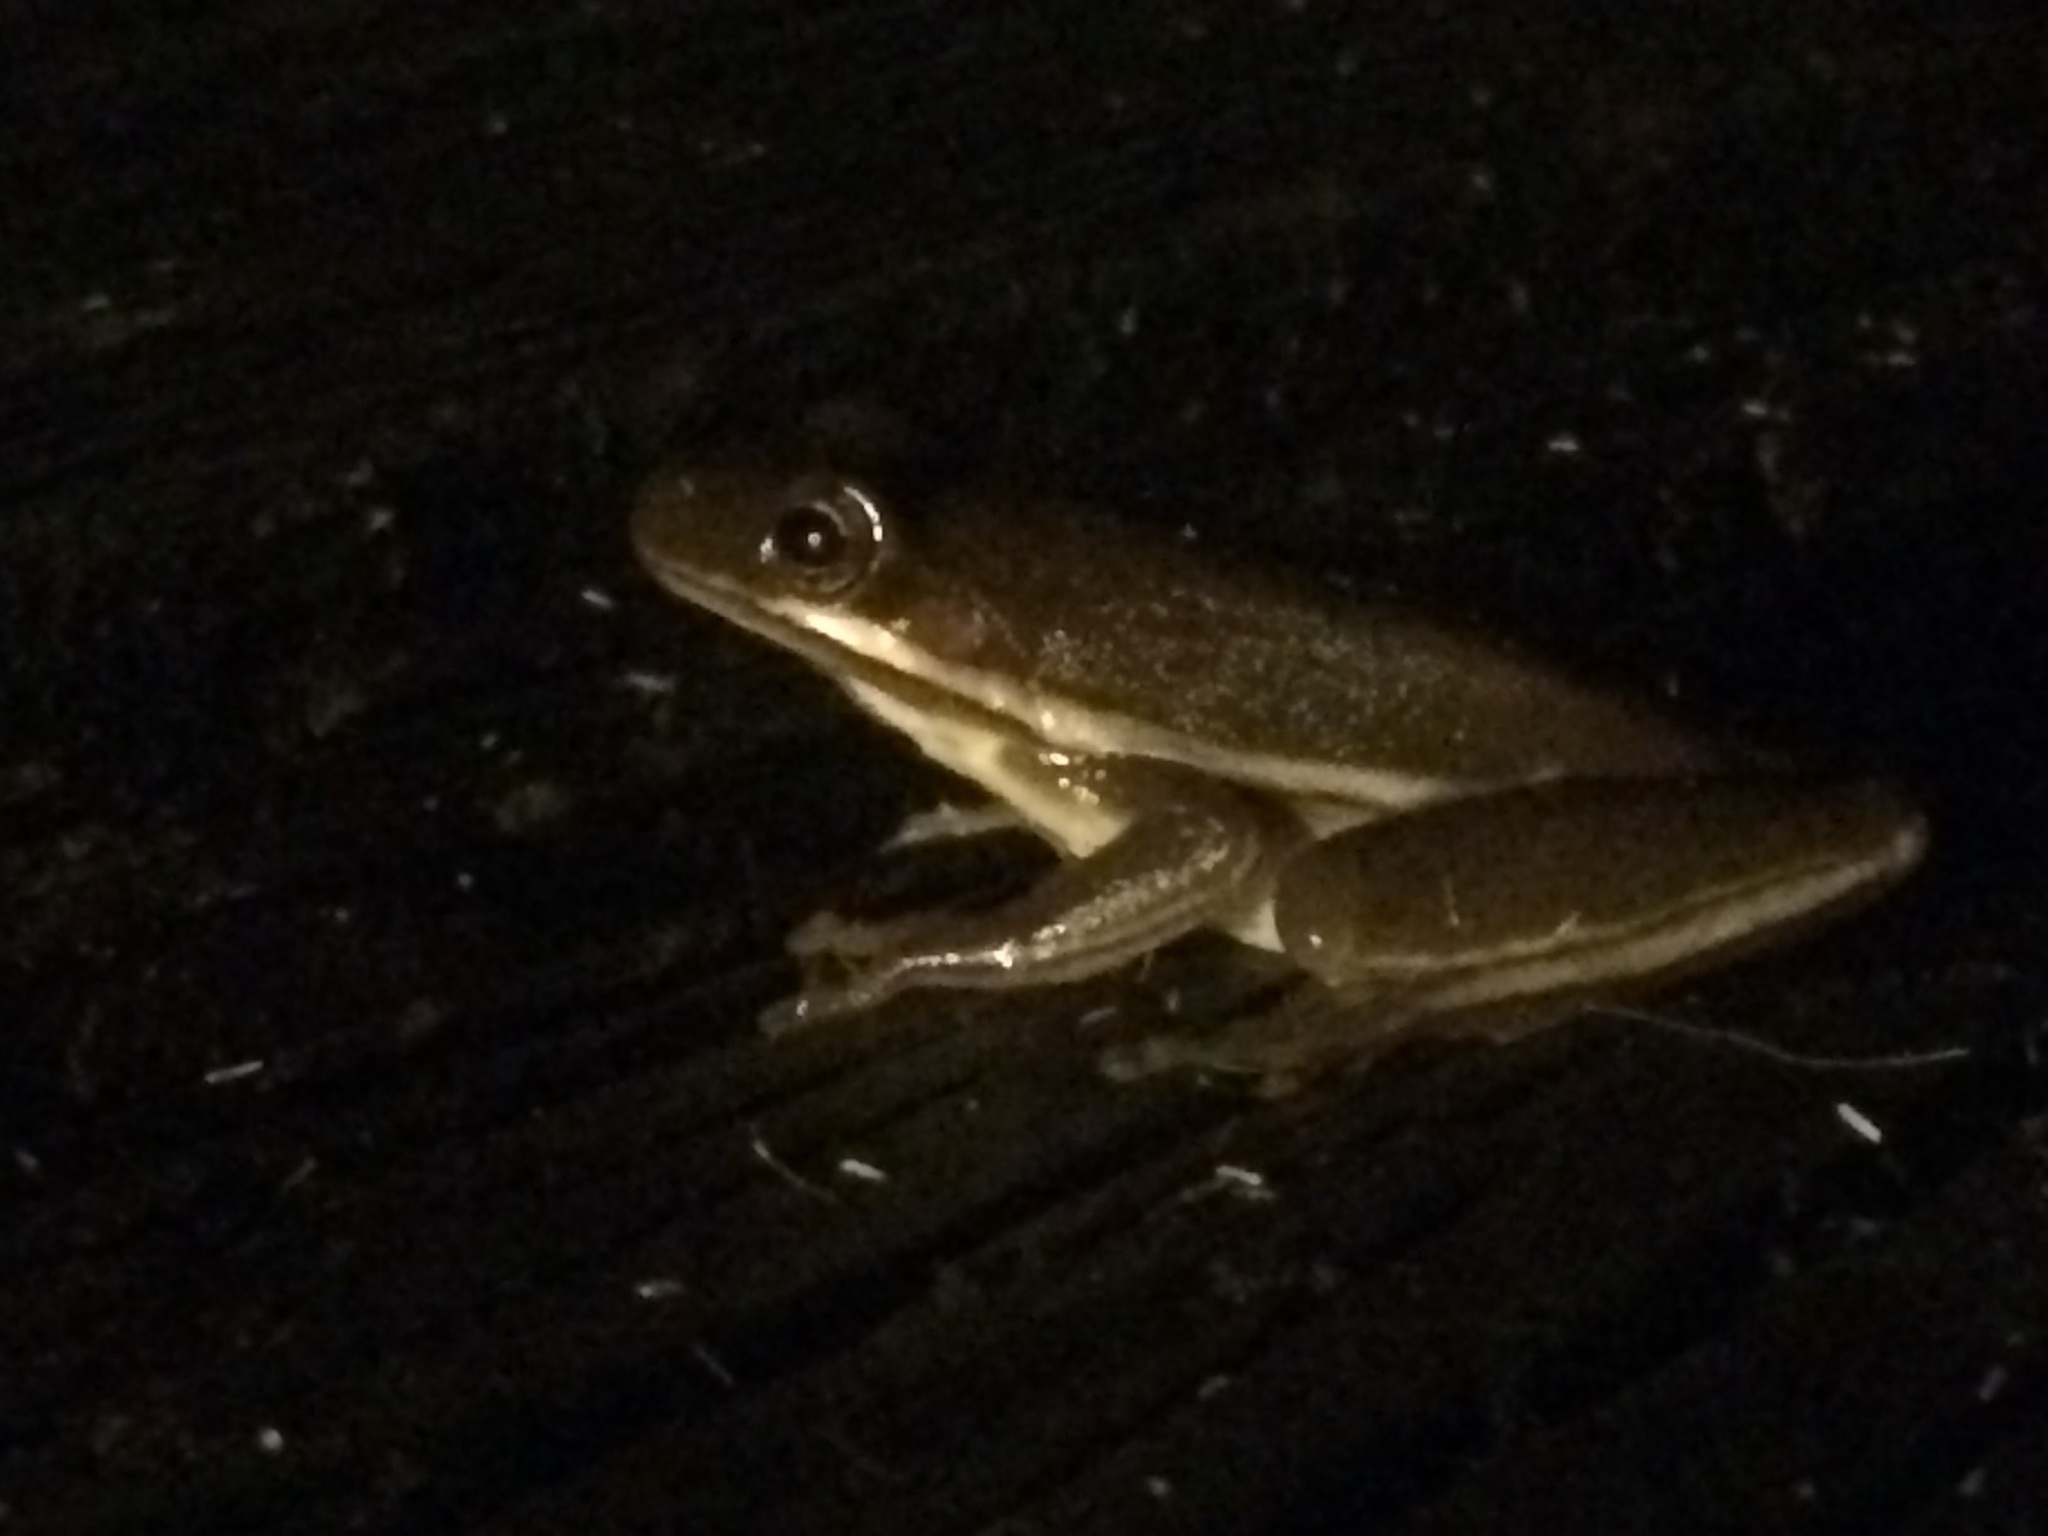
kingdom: Animalia
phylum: Chordata
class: Amphibia
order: Anura
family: Hylidae
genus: Dryophytes
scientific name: Dryophytes cinereus
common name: Green treefrog
